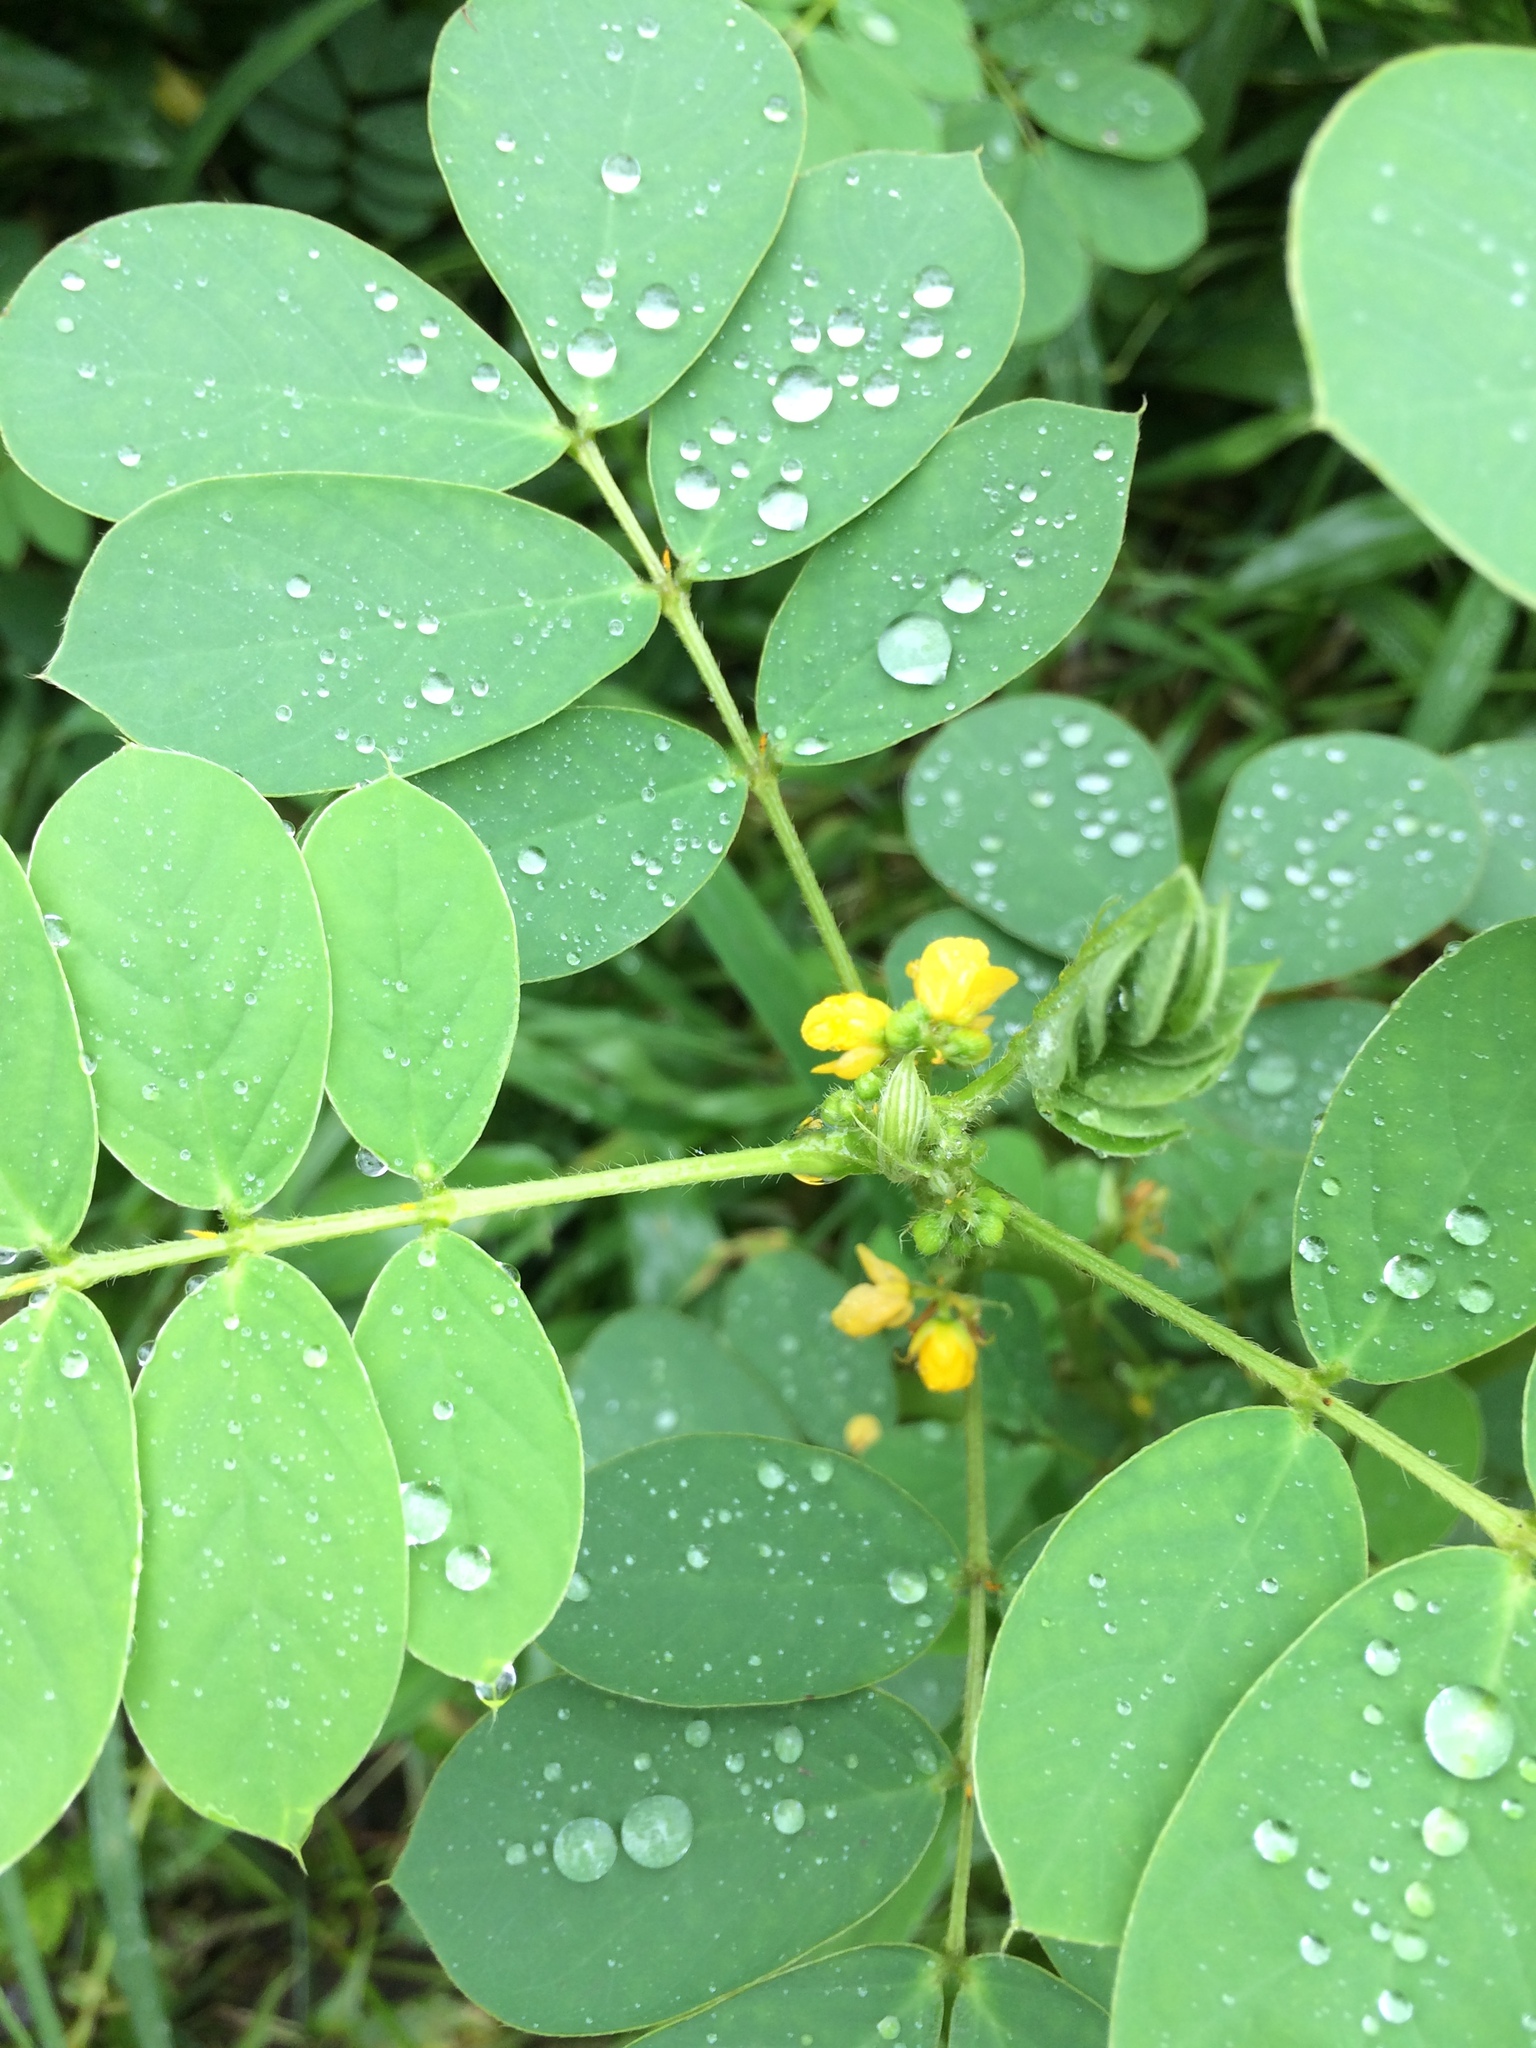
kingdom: Plantae
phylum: Tracheophyta
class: Magnoliopsida
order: Fabales
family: Fabaceae
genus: Senna
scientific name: Senna uniflora
